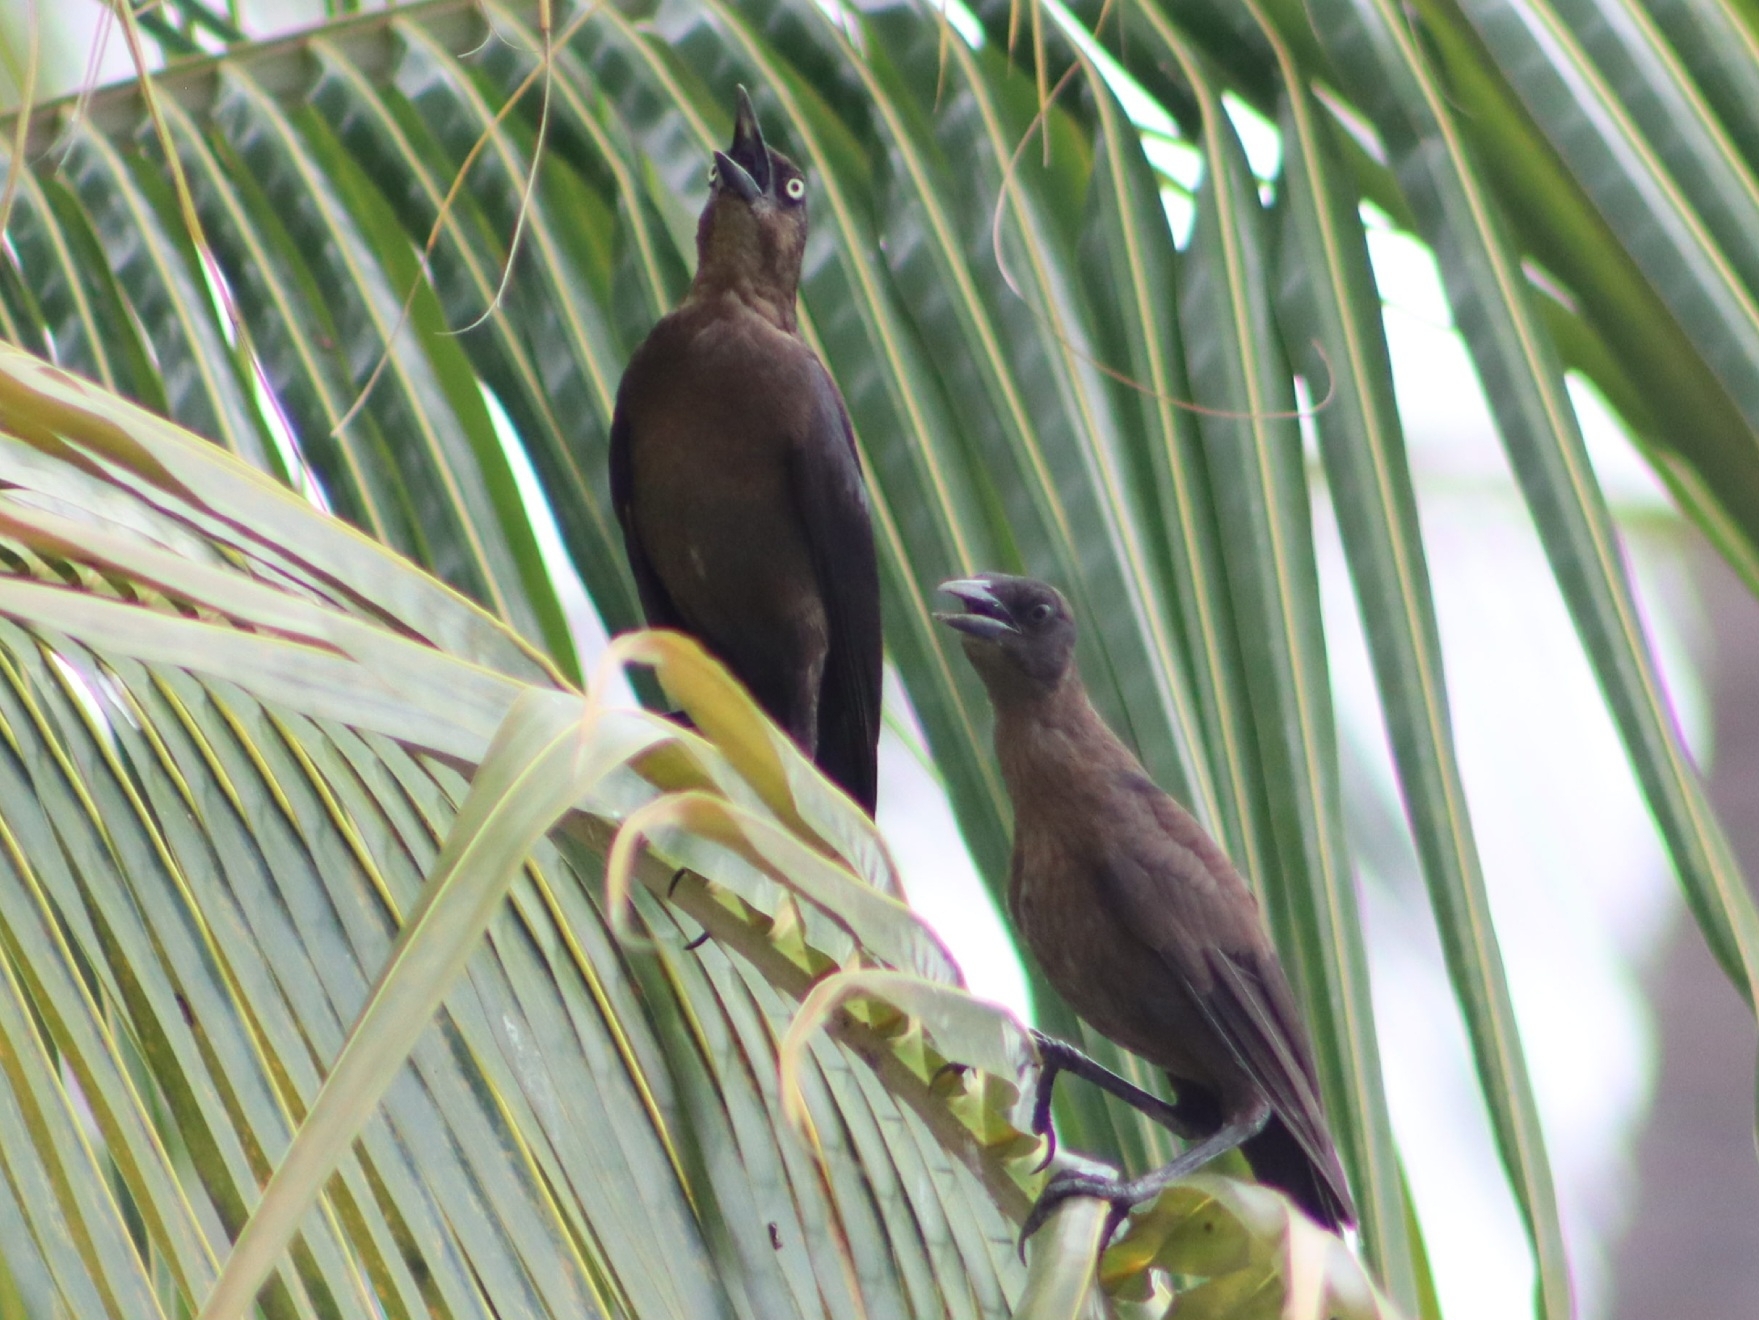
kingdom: Animalia
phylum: Chordata
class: Aves
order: Passeriformes
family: Icteridae
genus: Quiscalus
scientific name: Quiscalus mexicanus
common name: Great-tailed grackle
